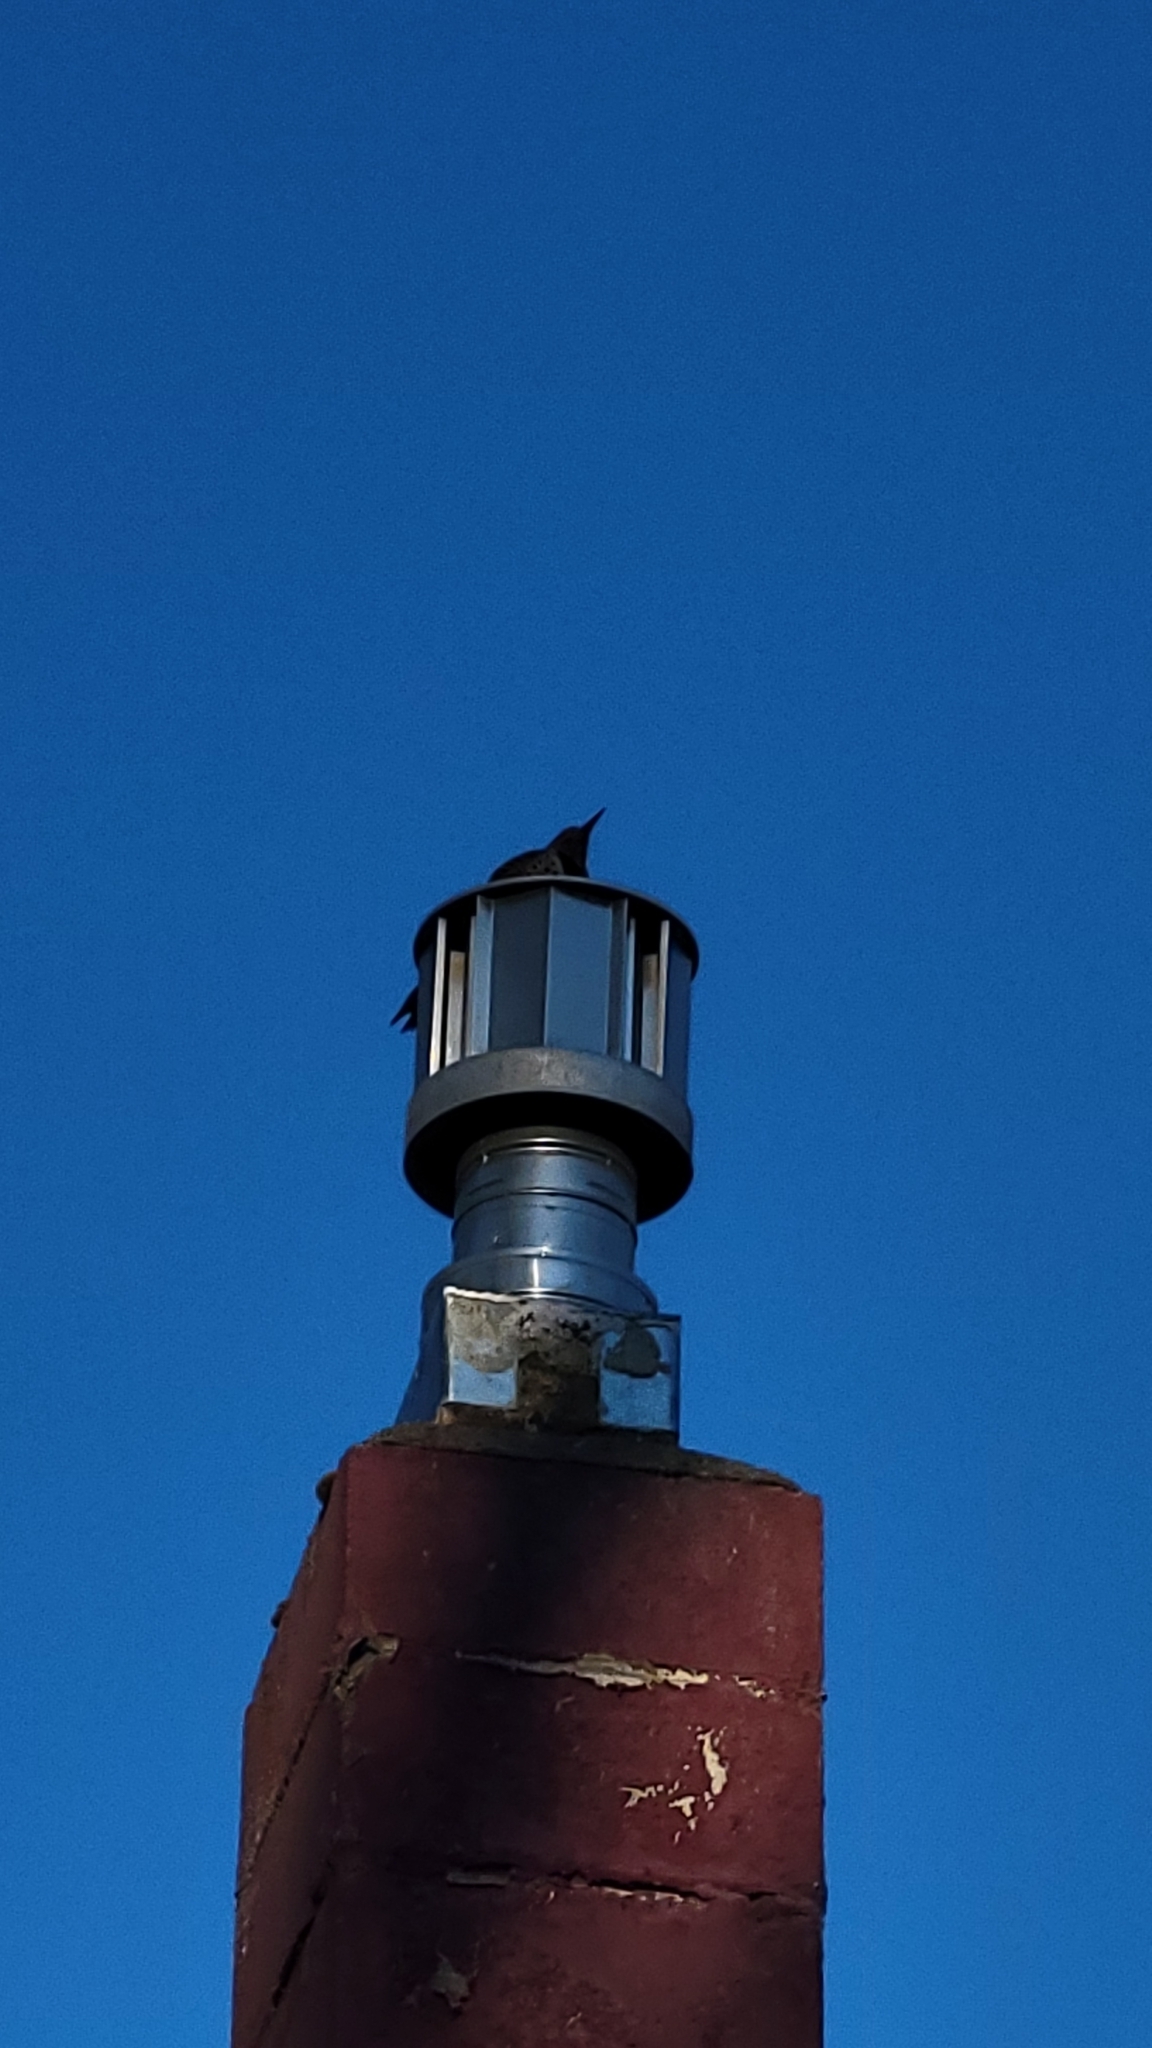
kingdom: Animalia
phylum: Chordata
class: Aves
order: Piciformes
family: Picidae
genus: Colaptes
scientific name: Colaptes auratus
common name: Northern flicker
